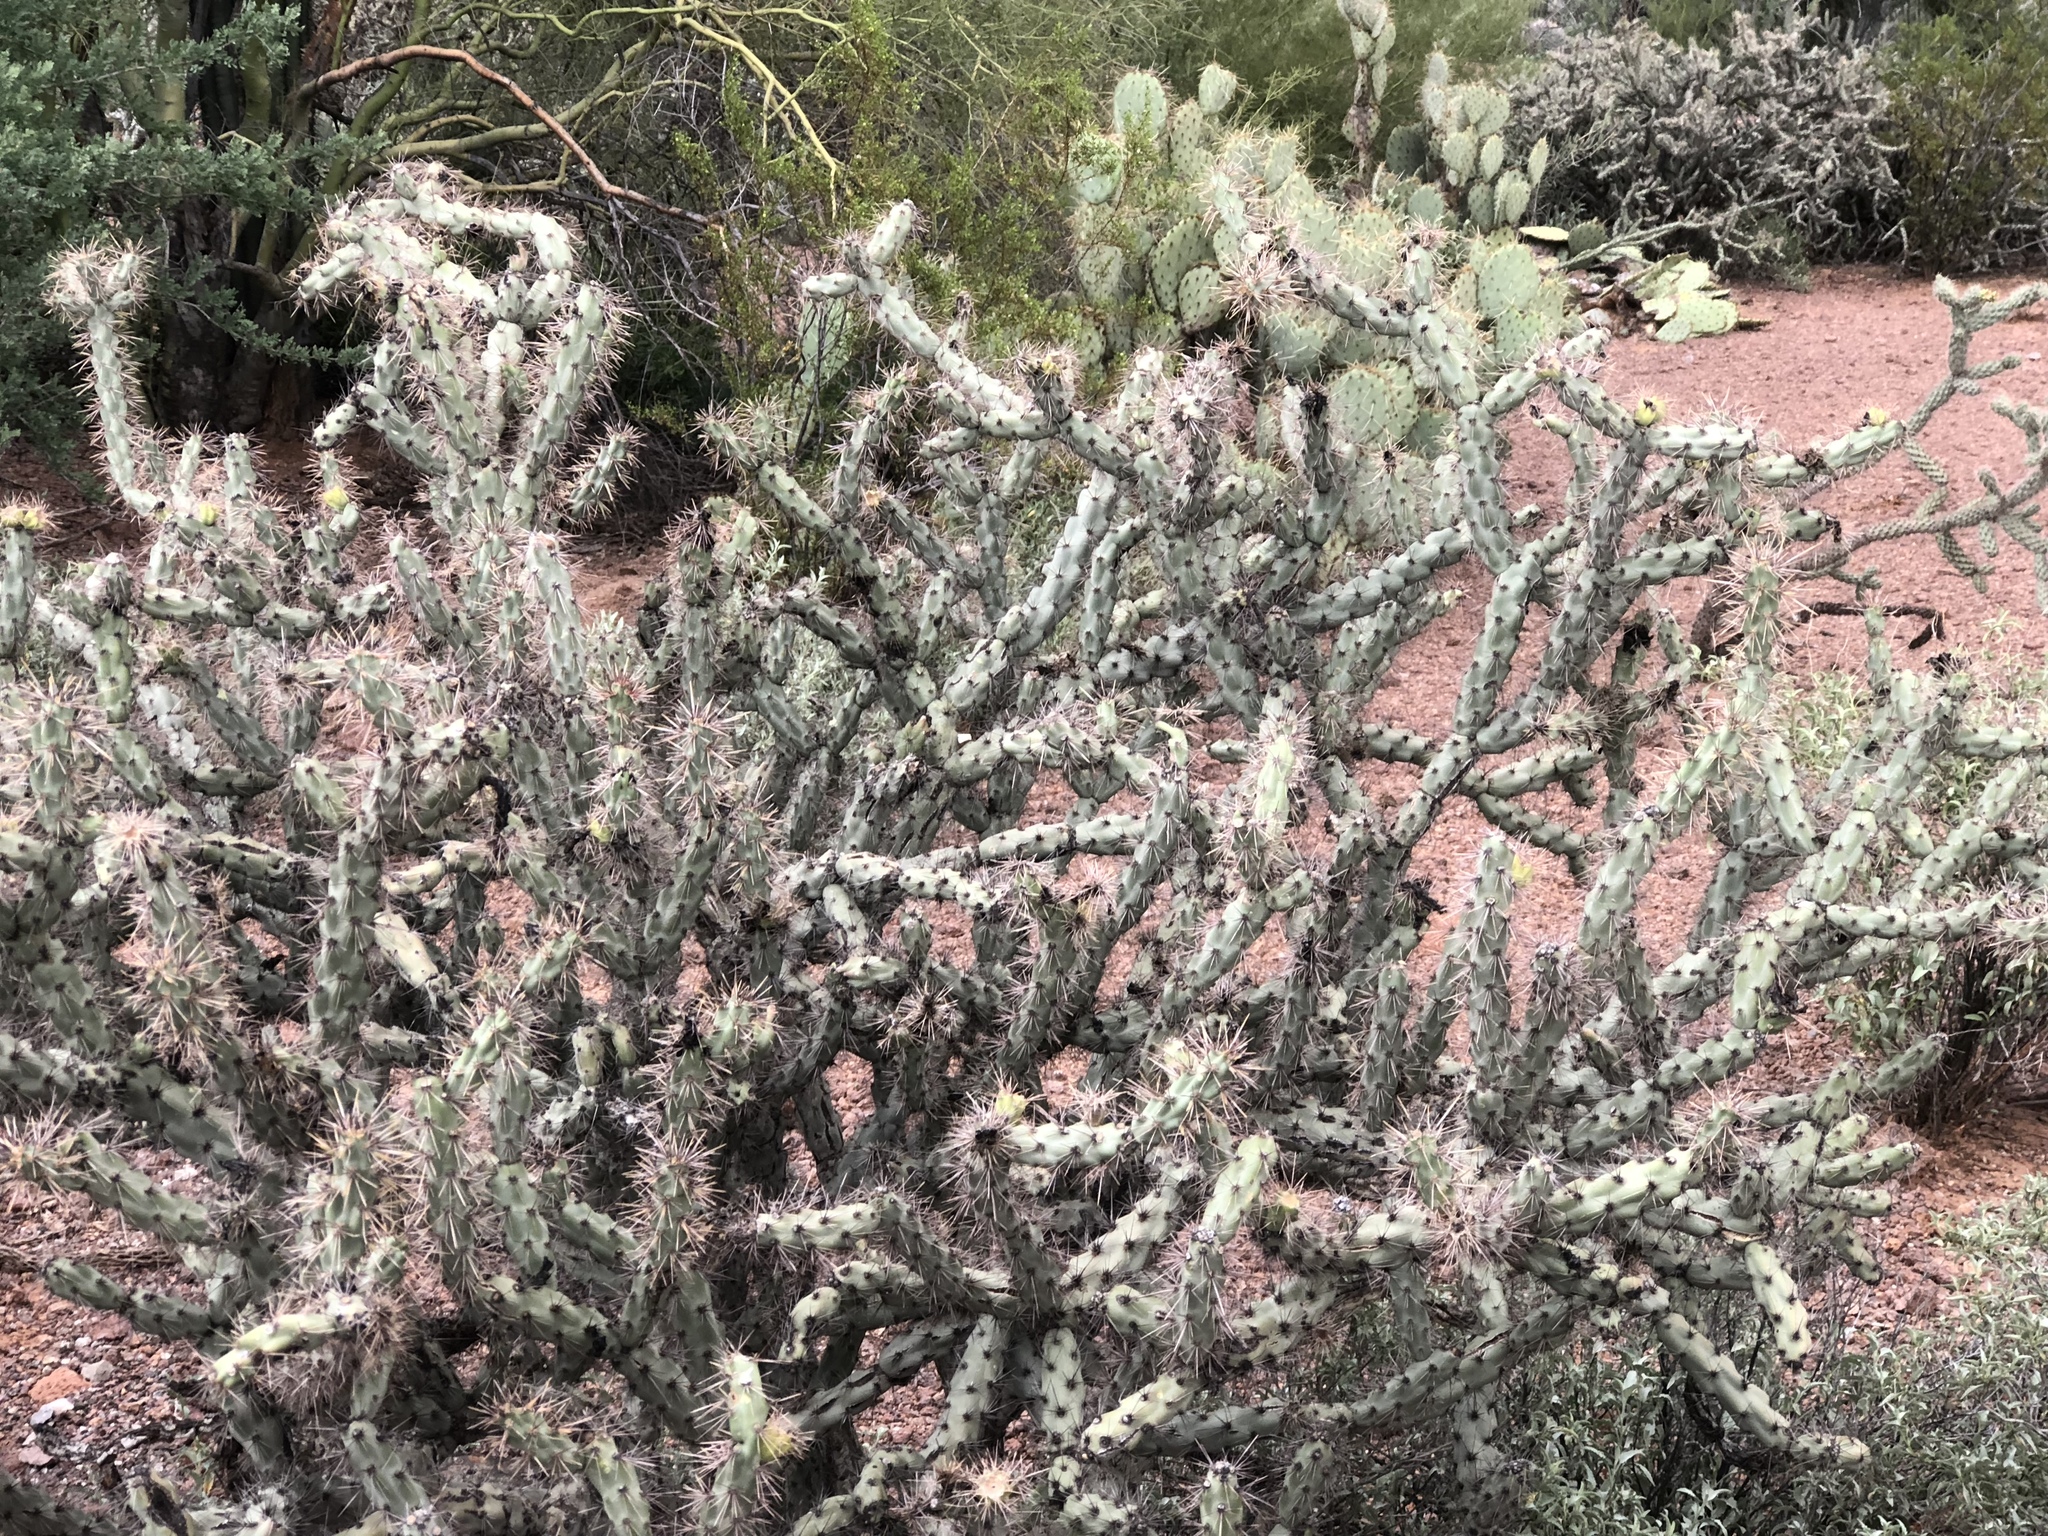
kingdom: Plantae
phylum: Tracheophyta
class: Magnoliopsida
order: Caryophyllales
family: Cactaceae
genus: Cylindropuntia
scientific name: Cylindropuntia acanthocarpa
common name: Buckhorn cholla
